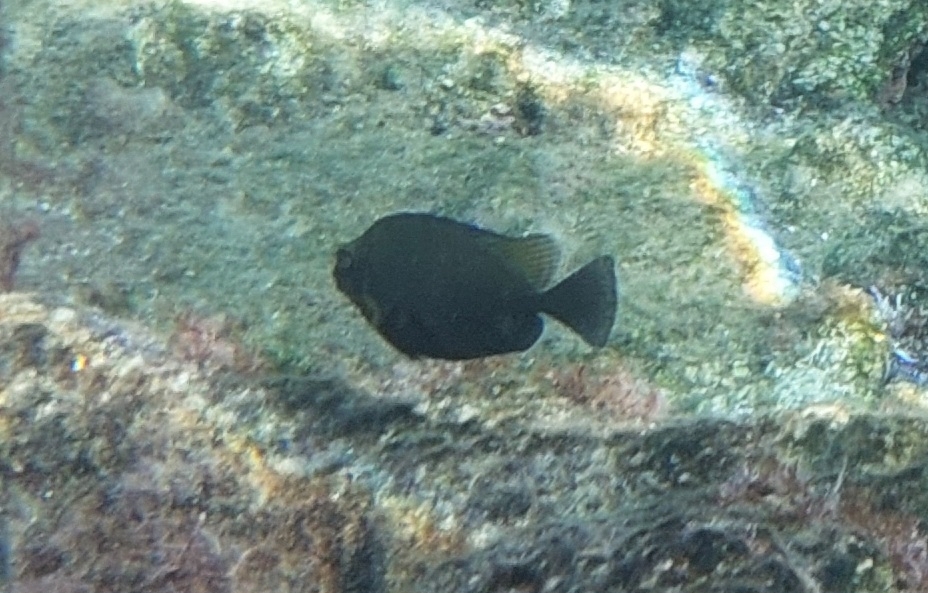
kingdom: Animalia
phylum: Chordata
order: Perciformes
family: Siganidae
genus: Siganus
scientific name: Siganus luridus
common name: Dusky spinefoot
